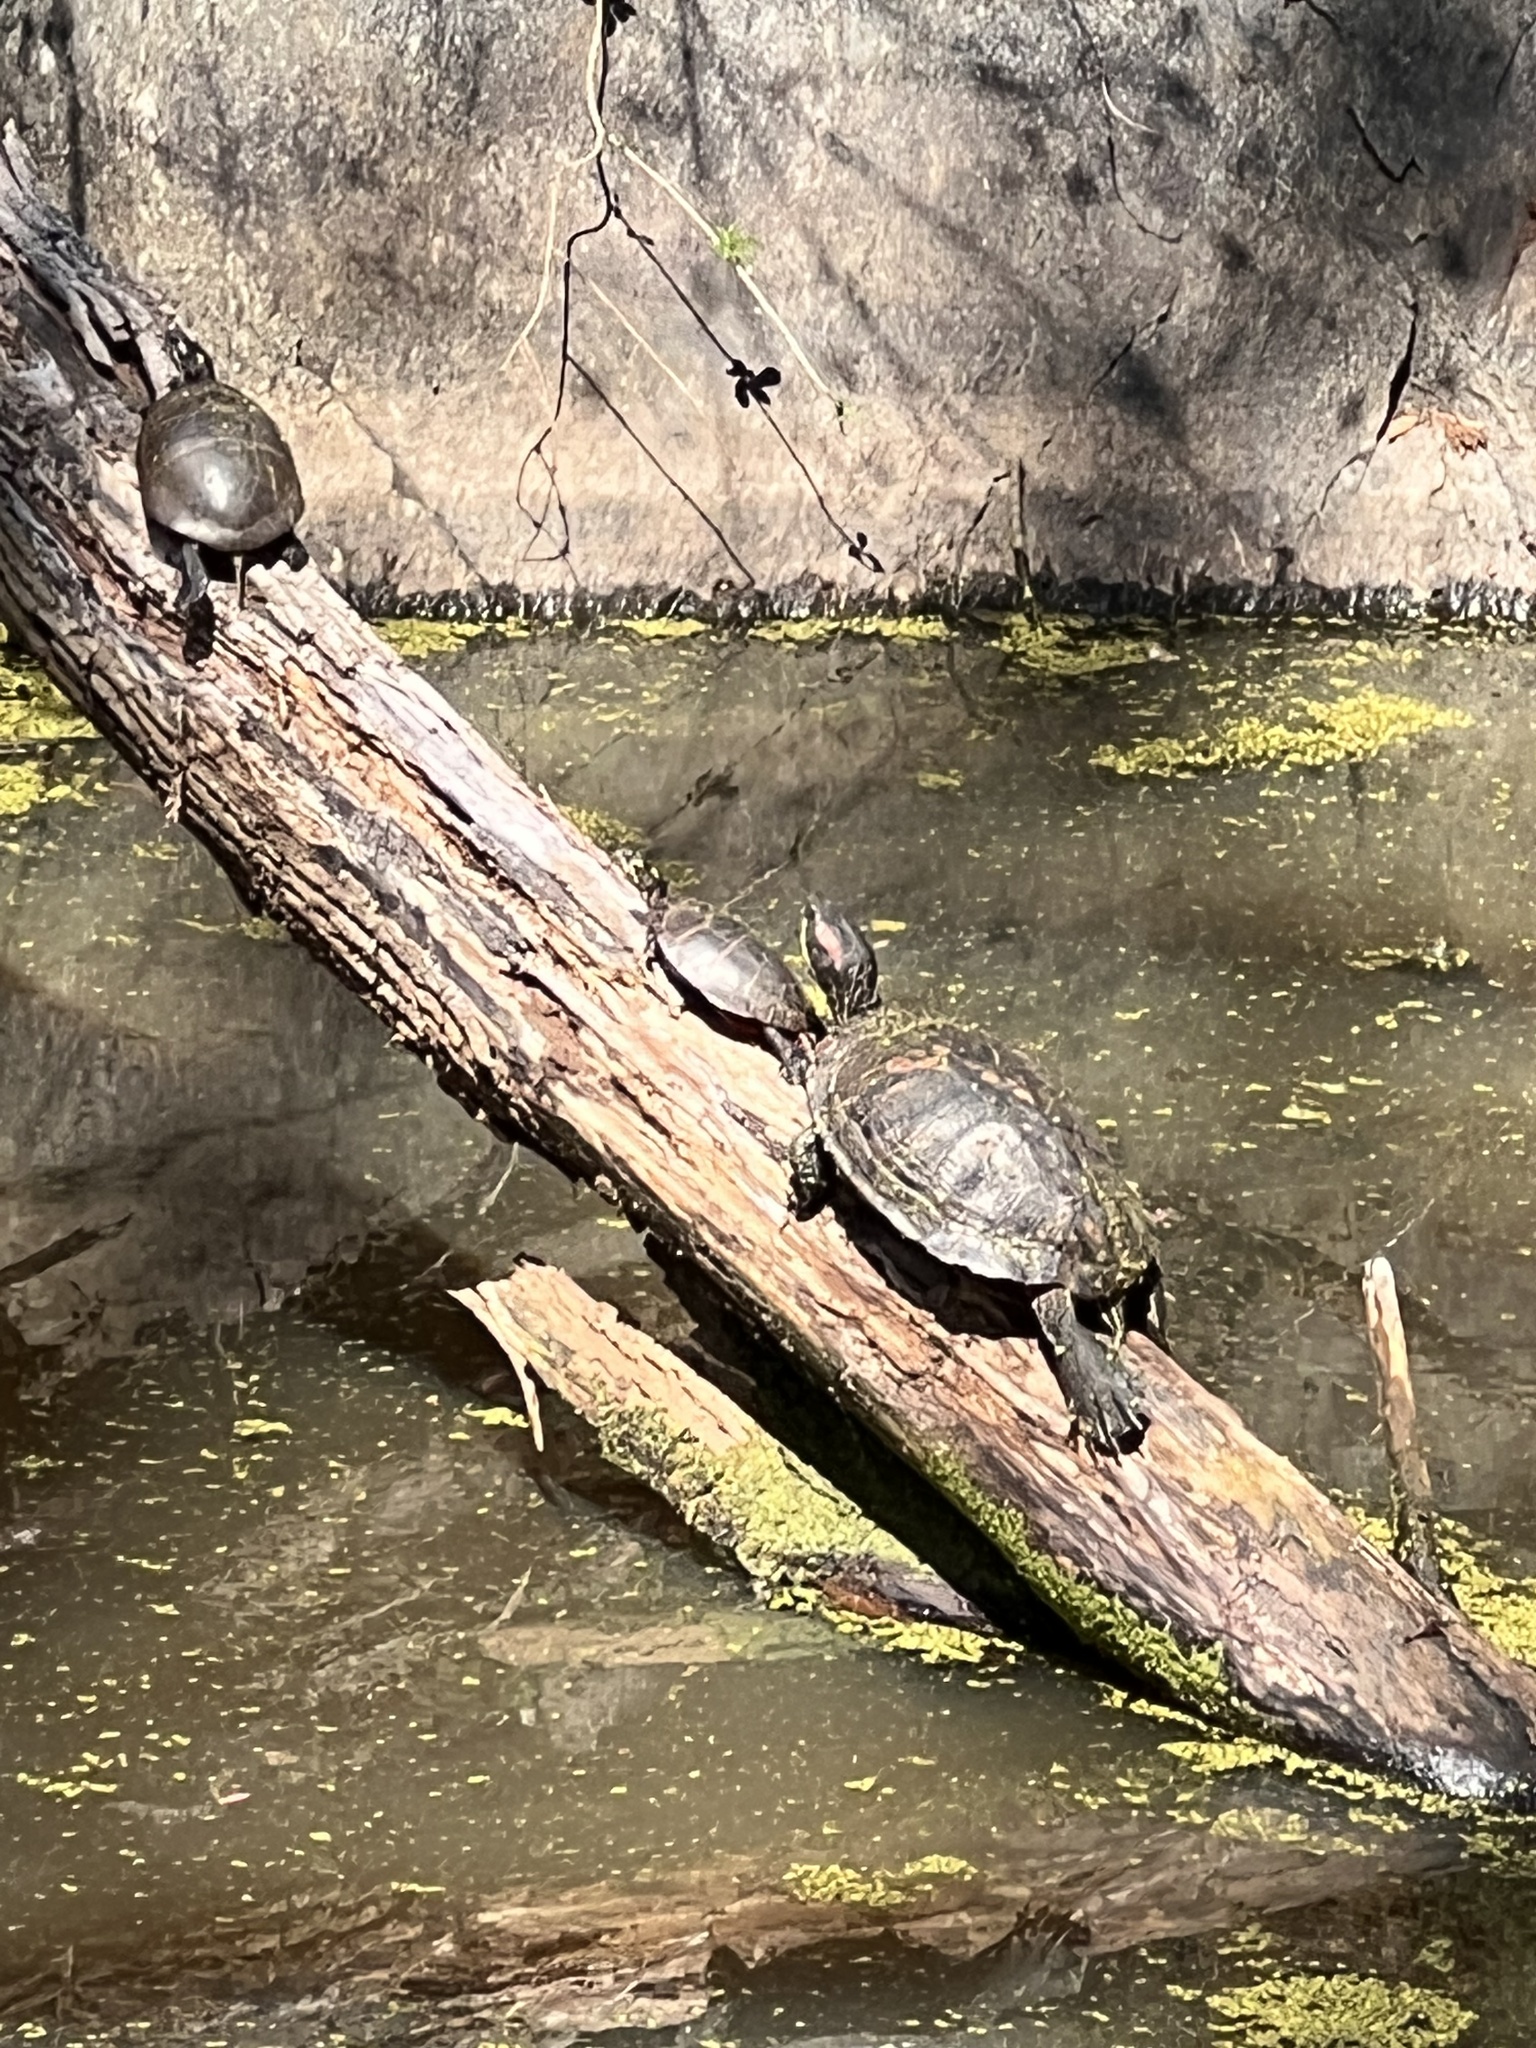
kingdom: Animalia
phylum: Chordata
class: Testudines
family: Emydidae
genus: Trachemys
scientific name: Trachemys scripta
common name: Slider
